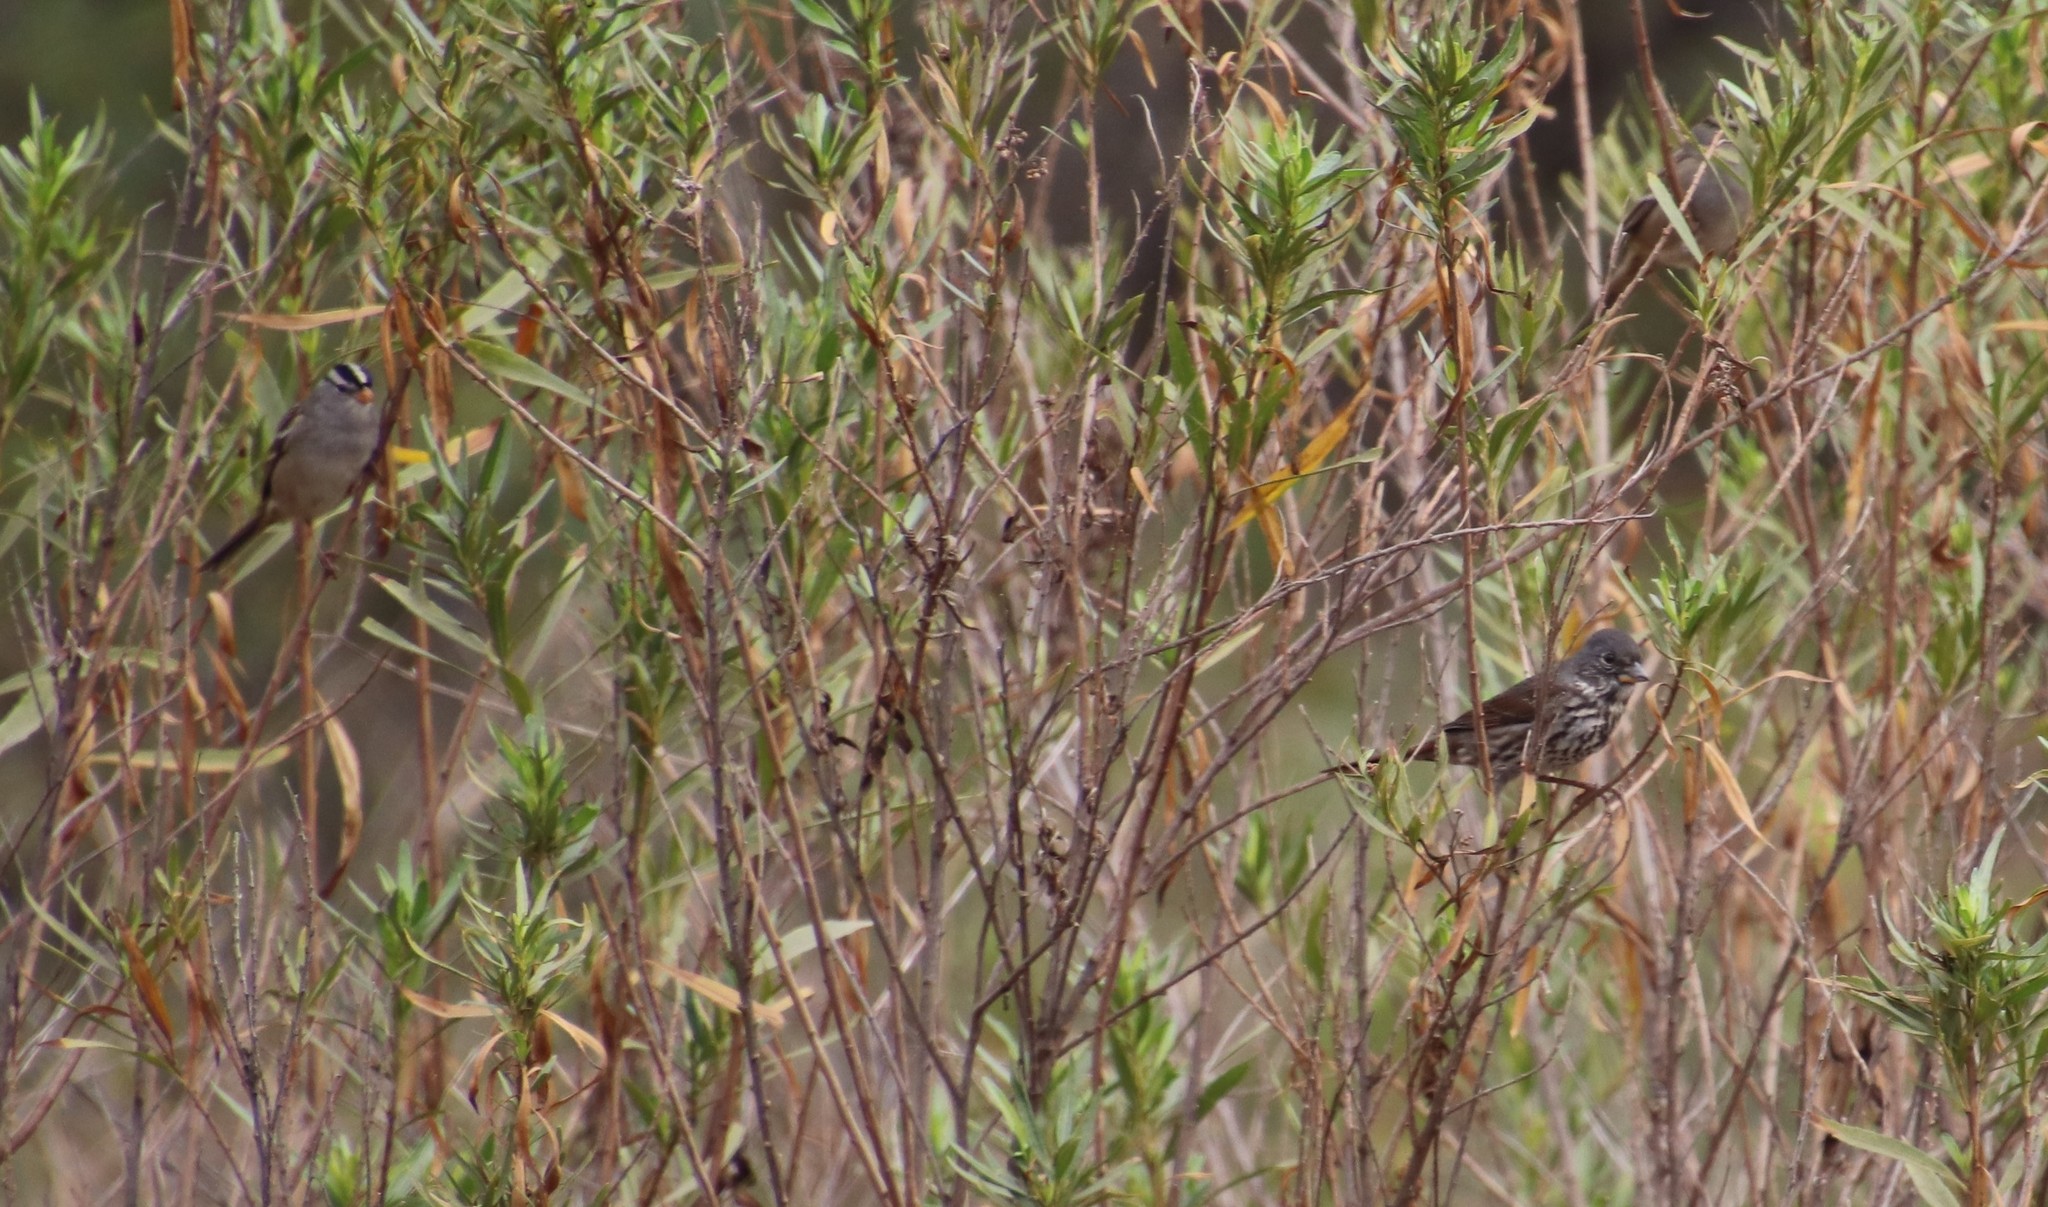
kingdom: Animalia
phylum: Chordata
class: Aves
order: Passeriformes
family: Passerellidae
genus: Passerella
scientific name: Passerella iliaca
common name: Fox sparrow
